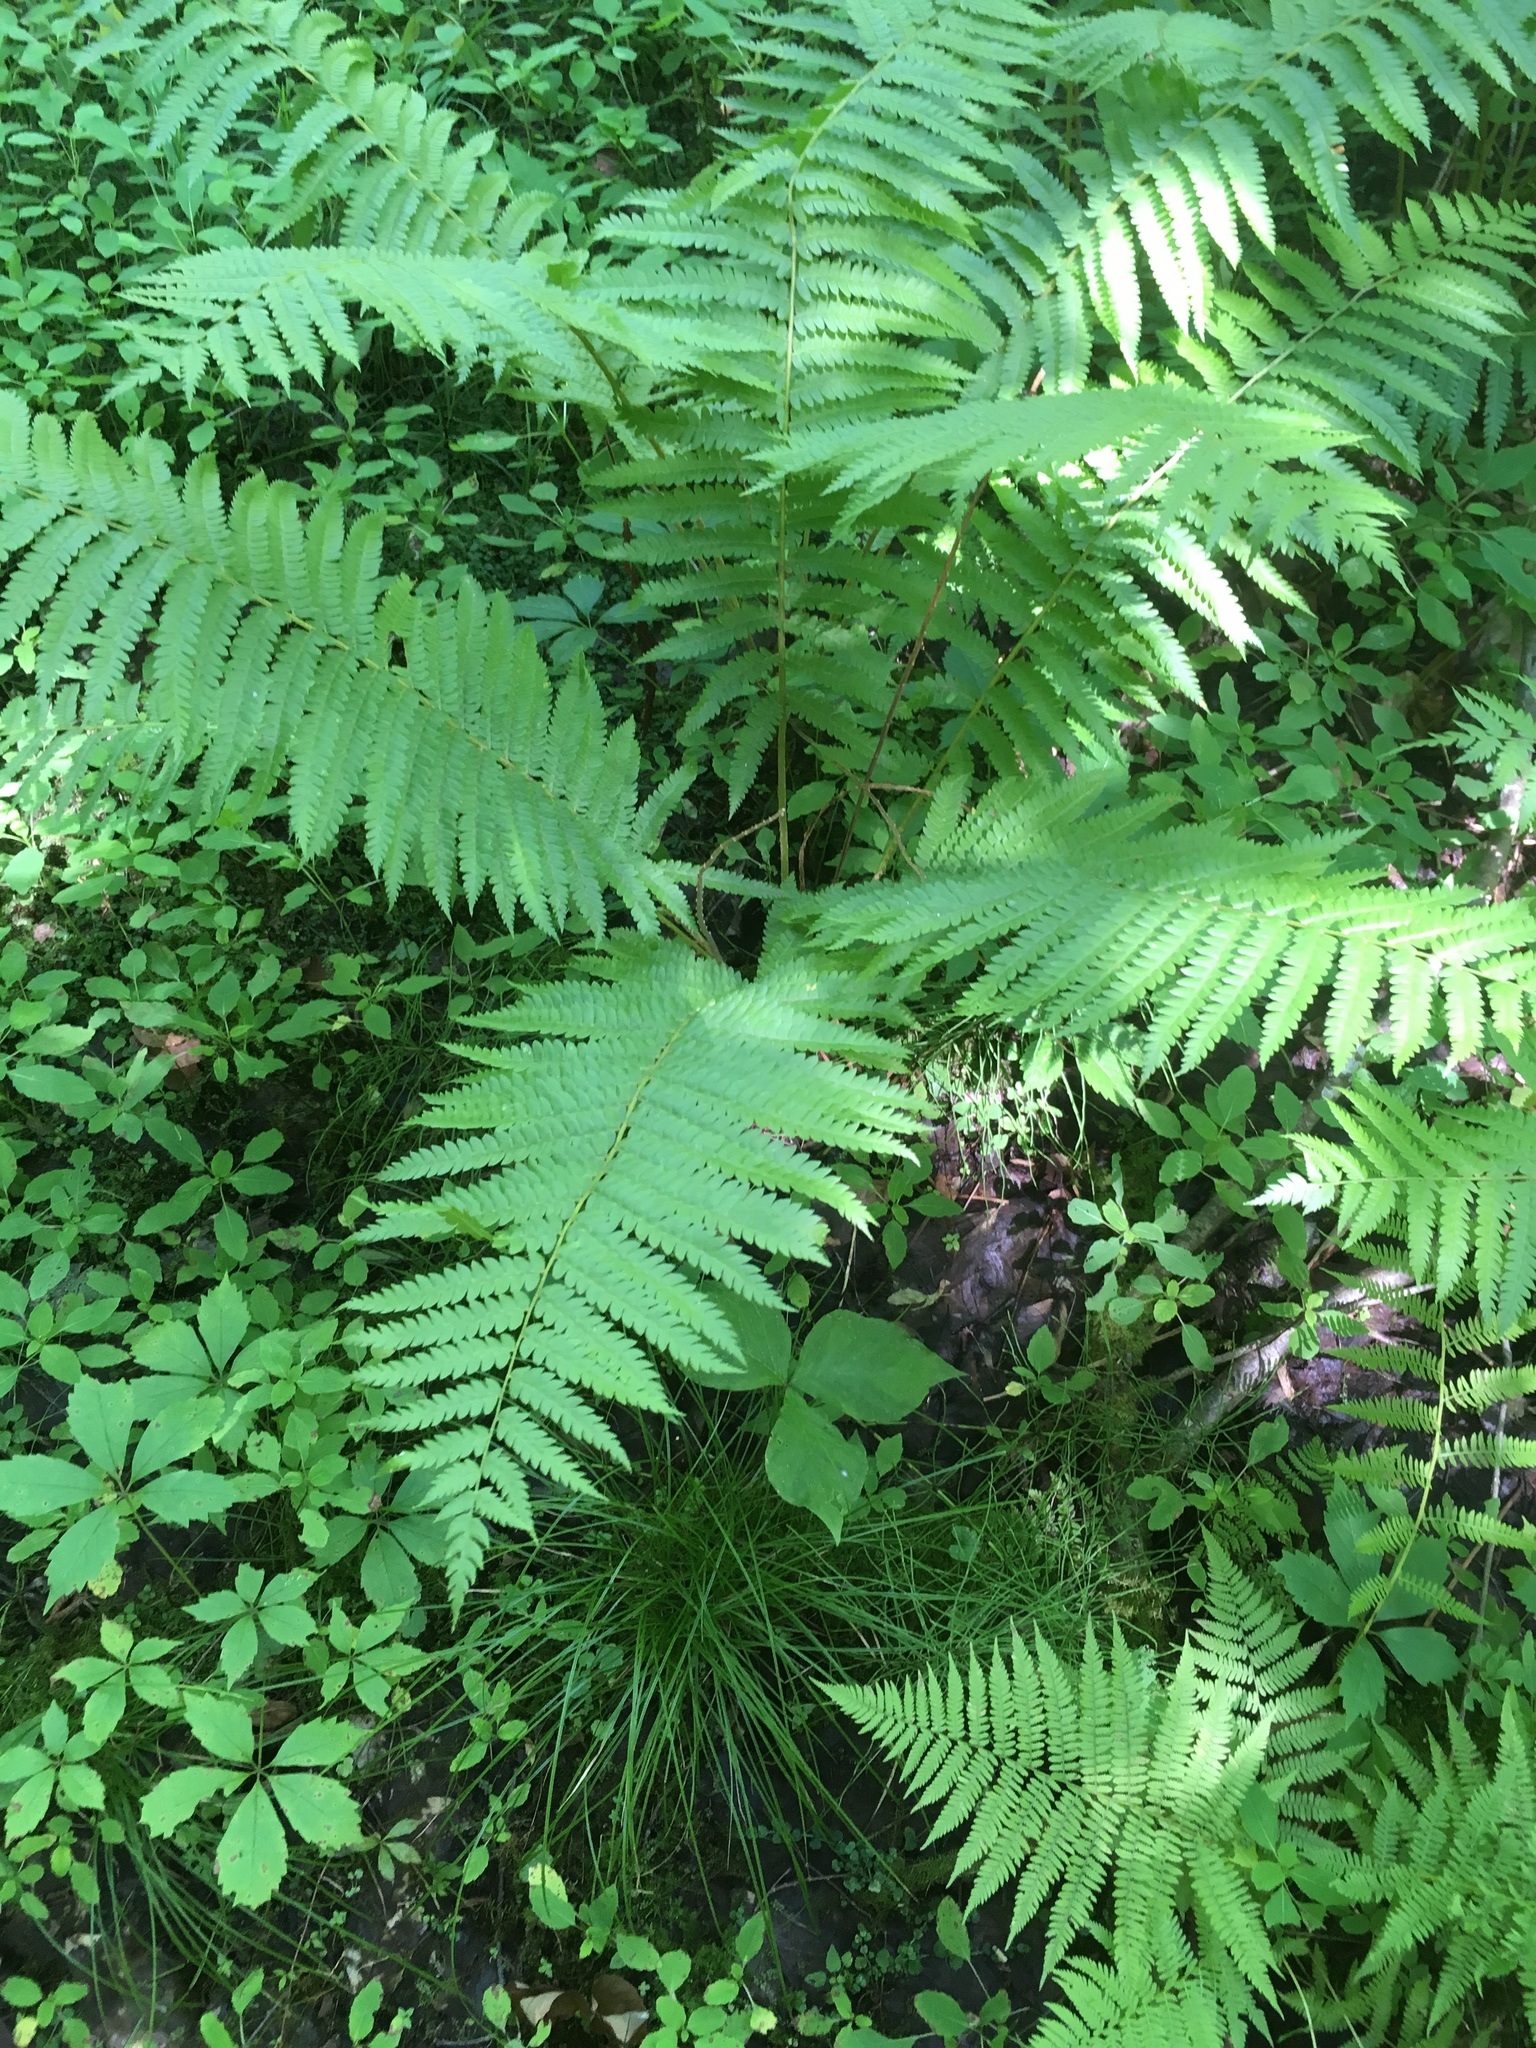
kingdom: Plantae
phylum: Tracheophyta
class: Polypodiopsida
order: Osmundales
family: Osmundaceae
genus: Osmundastrum
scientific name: Osmundastrum cinnamomeum
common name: Cinnamon fern
